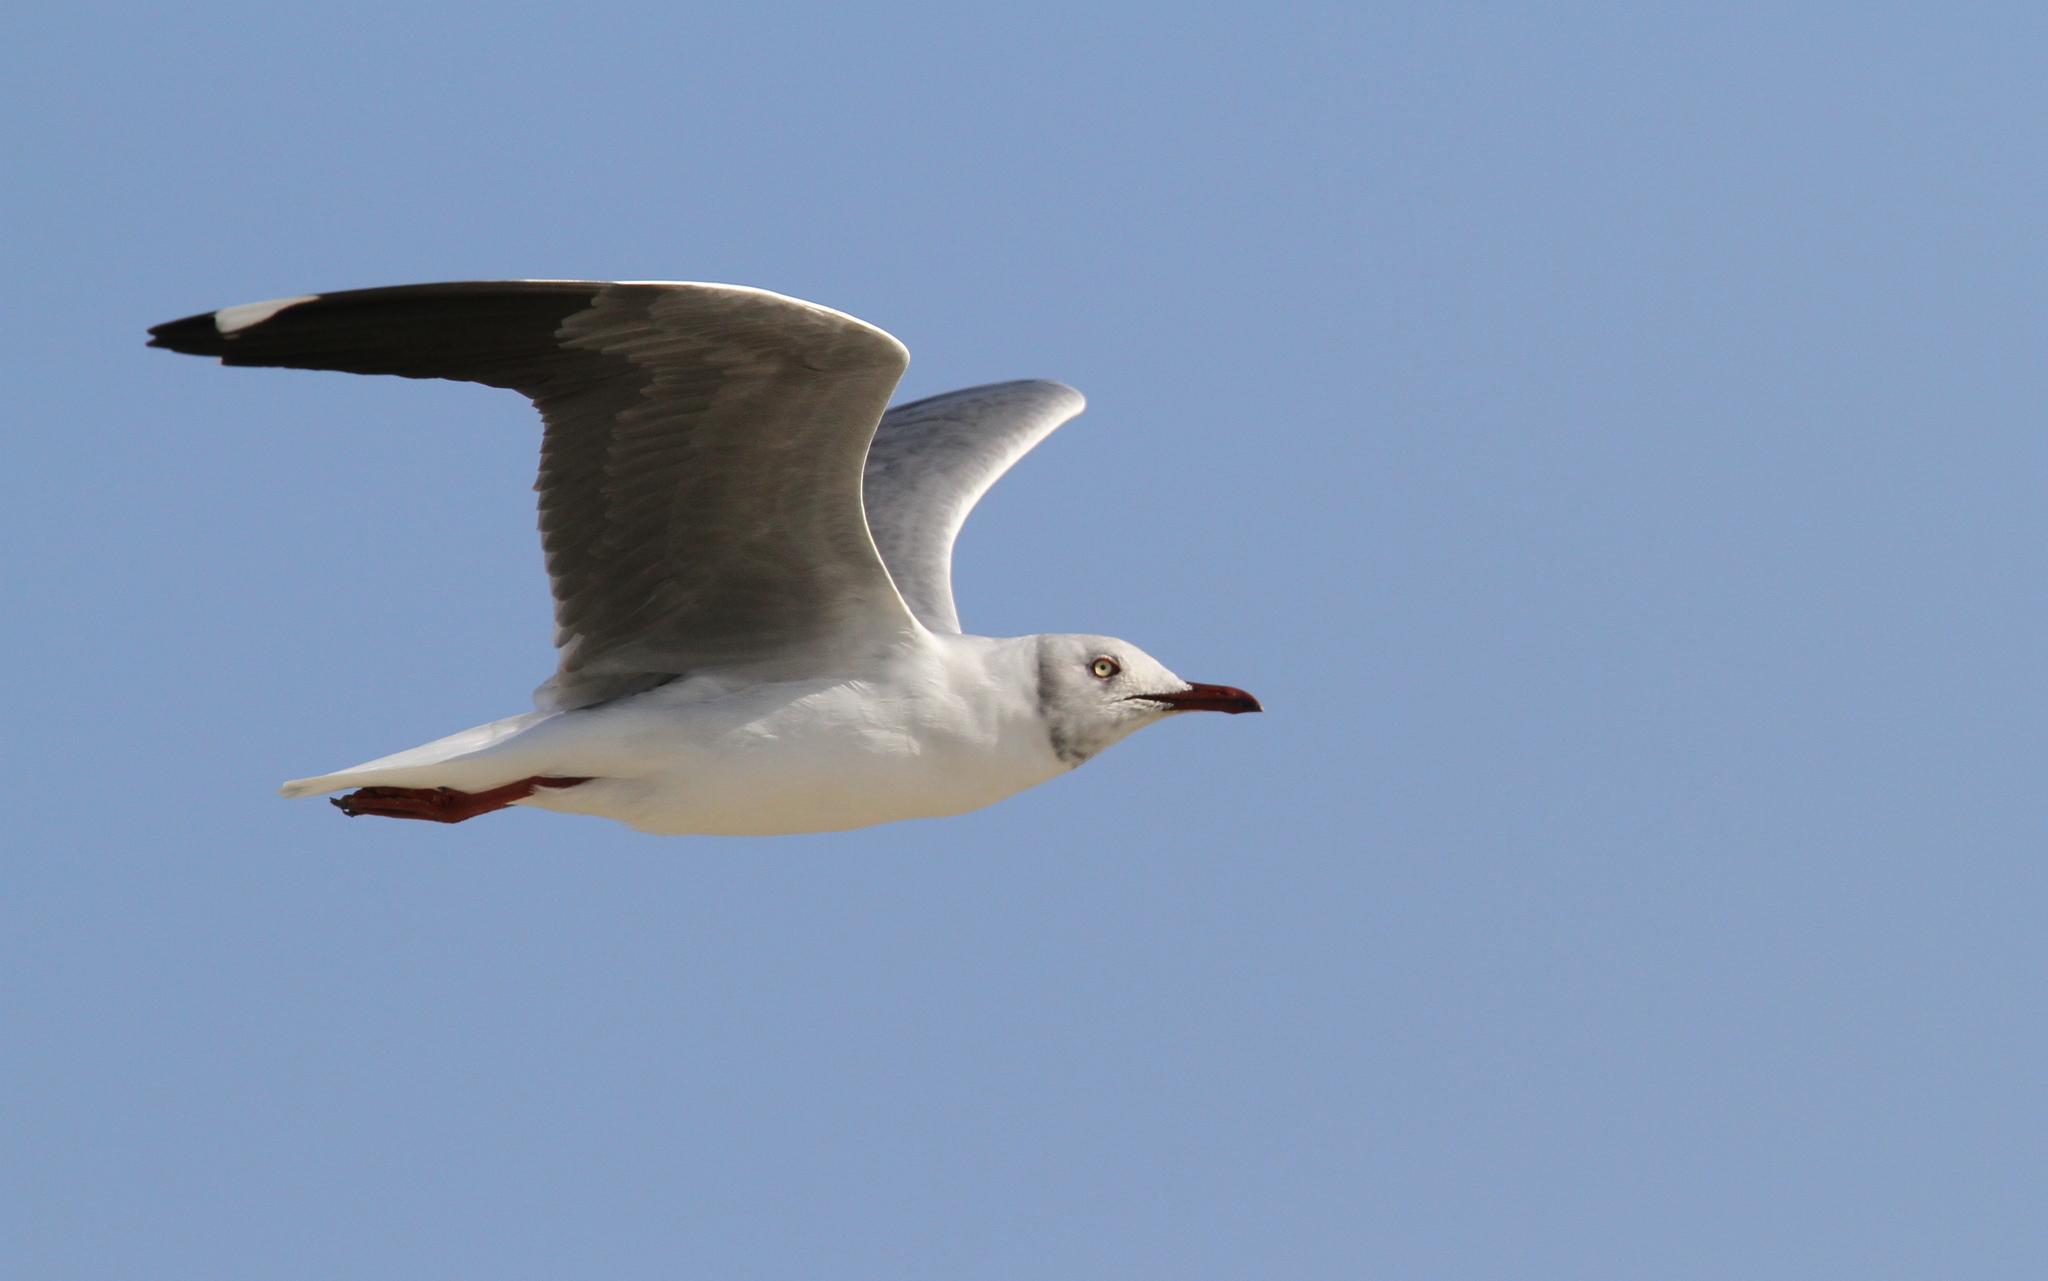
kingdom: Animalia
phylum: Chordata
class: Aves
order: Charadriiformes
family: Laridae
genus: Chroicocephalus
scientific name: Chroicocephalus cirrocephalus
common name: Grey-headed gull
